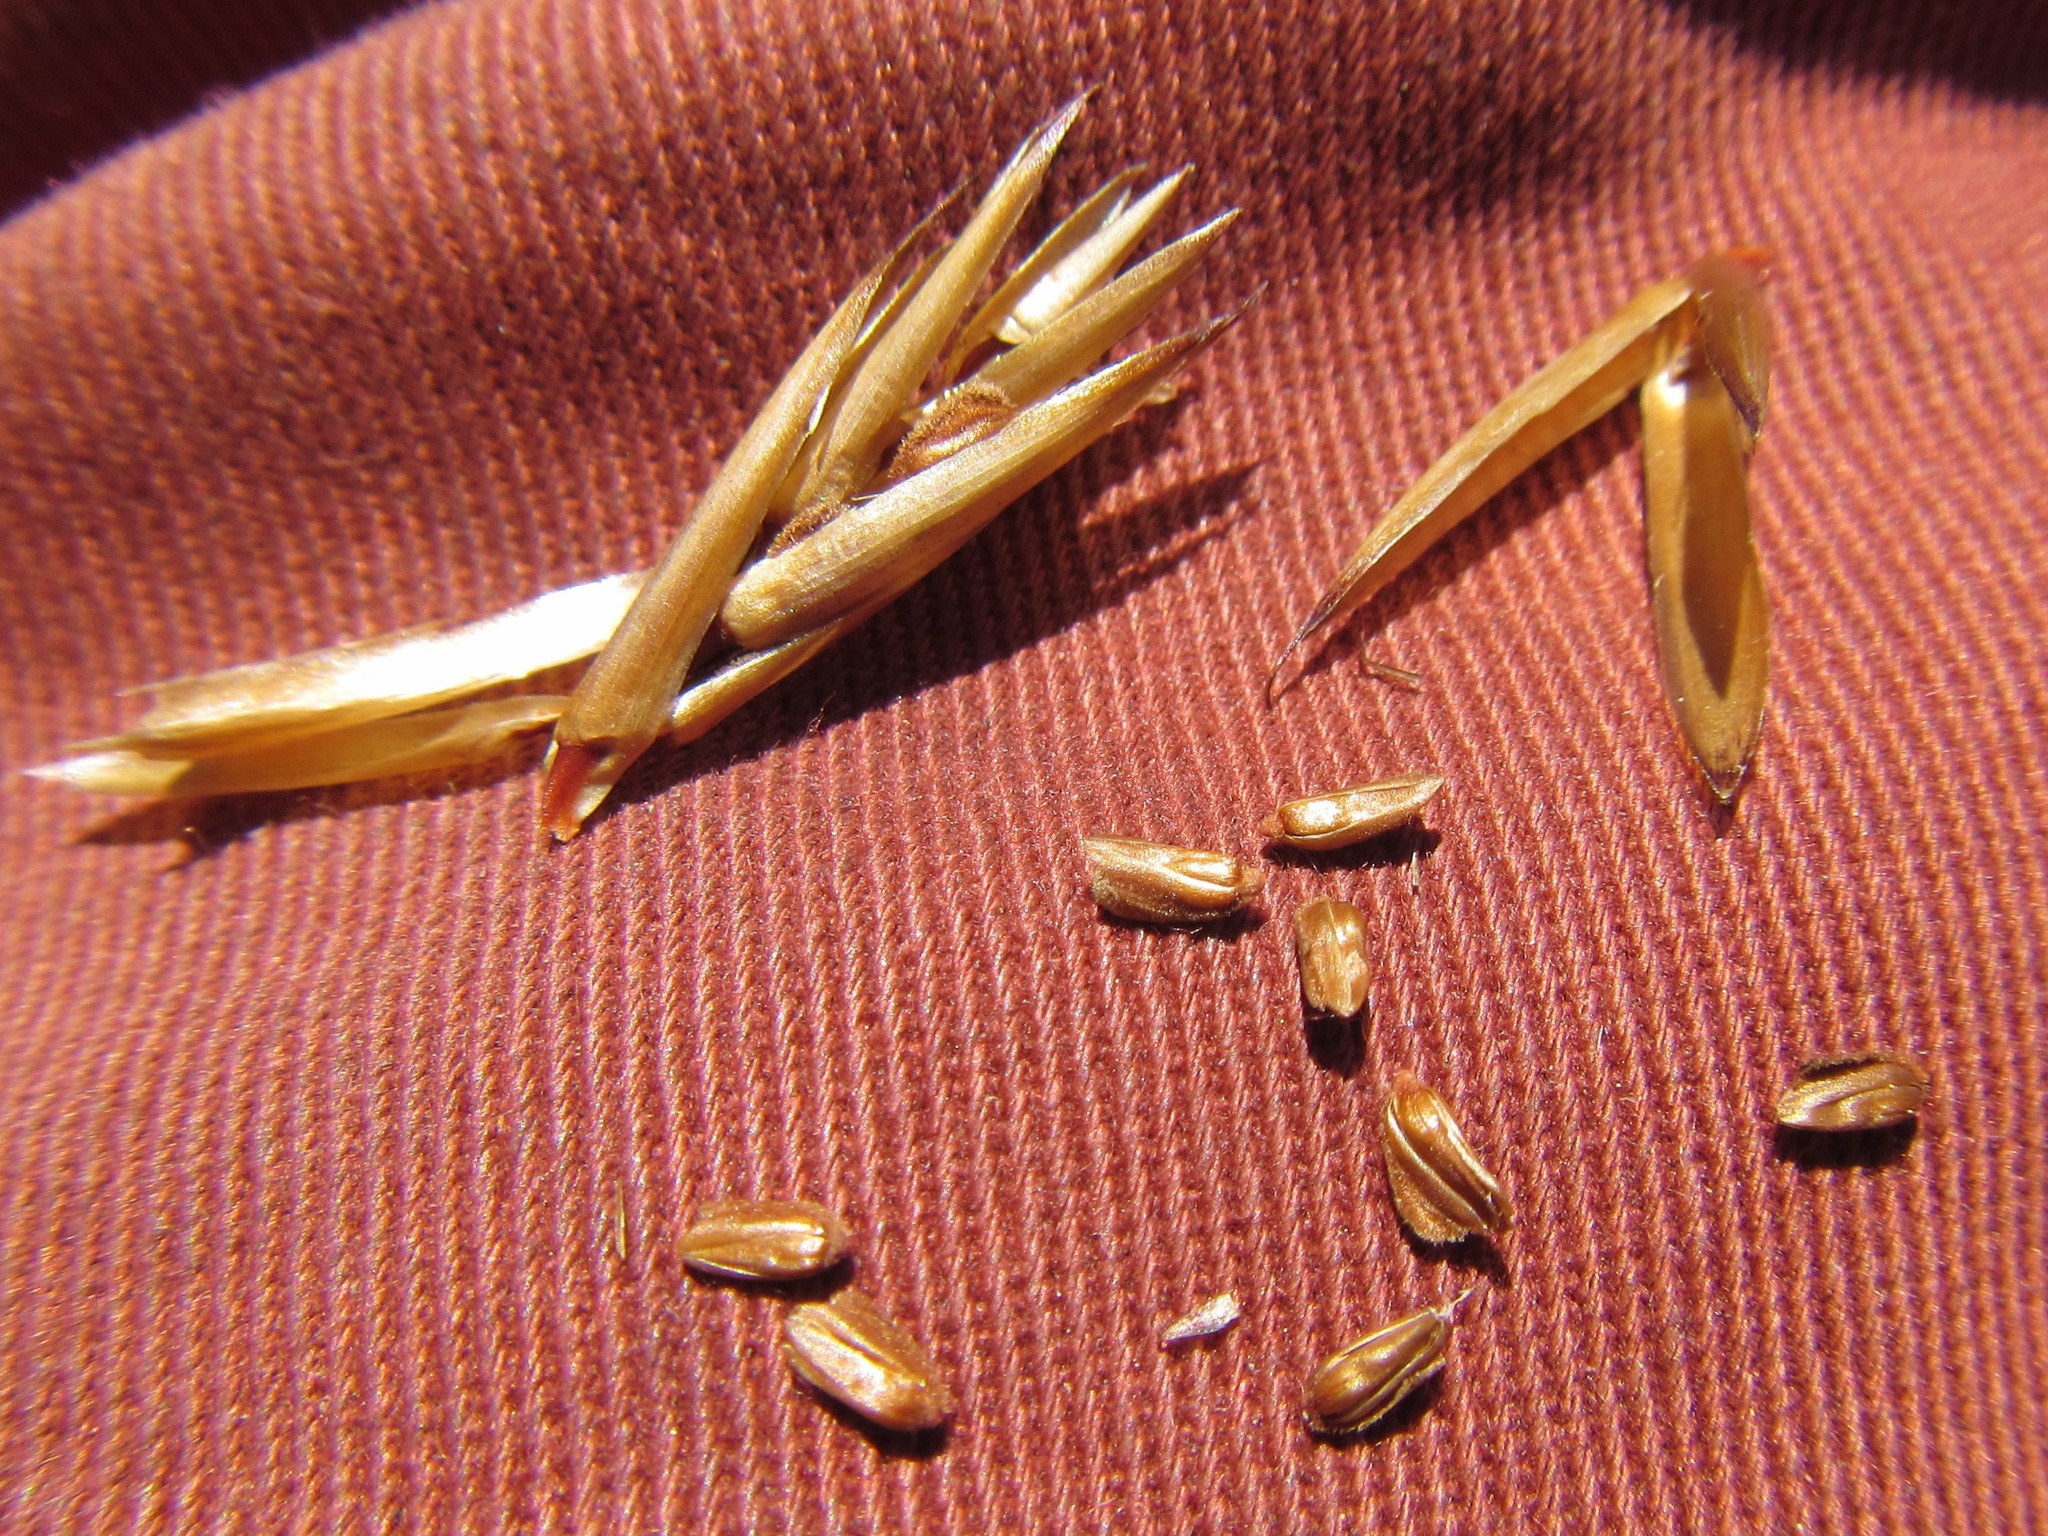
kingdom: Plantae
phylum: Tracheophyta
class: Liliopsida
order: Poales
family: Restionaceae
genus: Restio
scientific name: Restio corneolus
